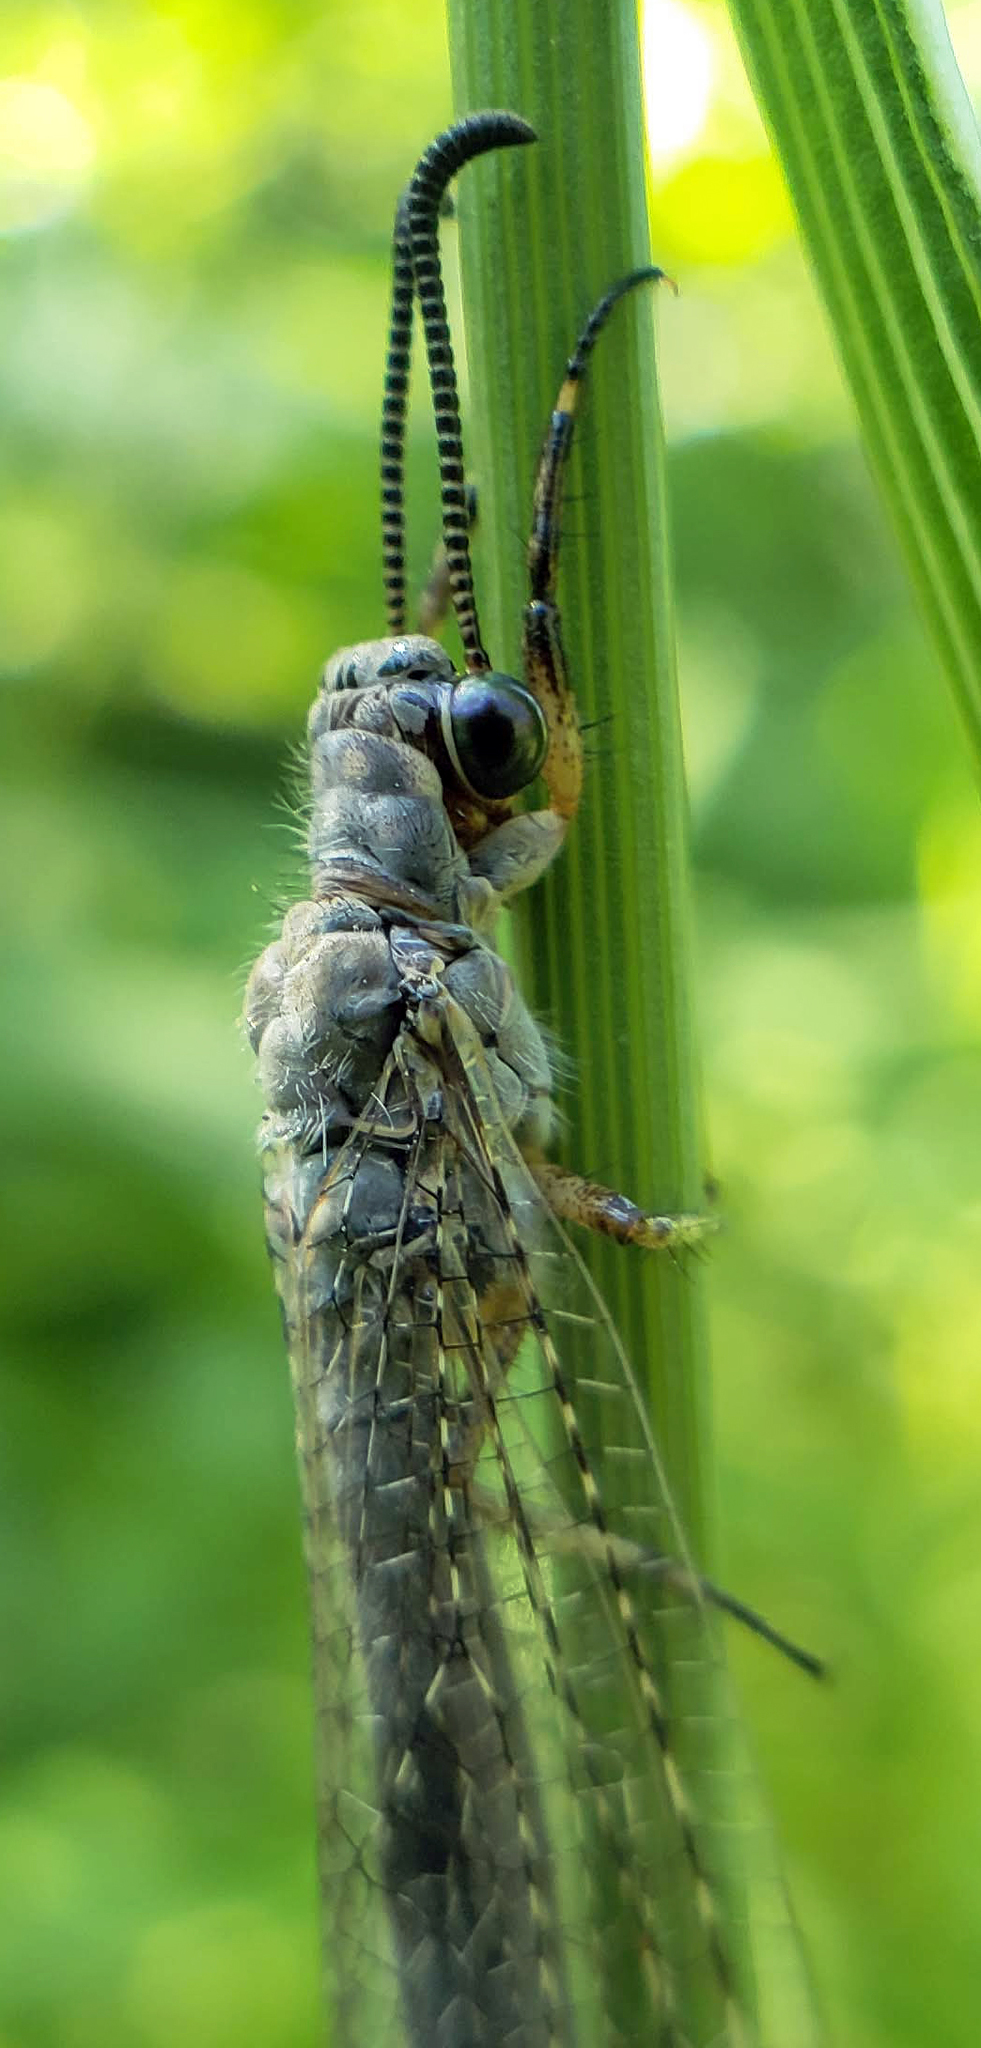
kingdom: Animalia
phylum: Arthropoda
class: Insecta
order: Neuroptera
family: Myrmeleontidae
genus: Myrmeleon
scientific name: Myrmeleon immaculatus
